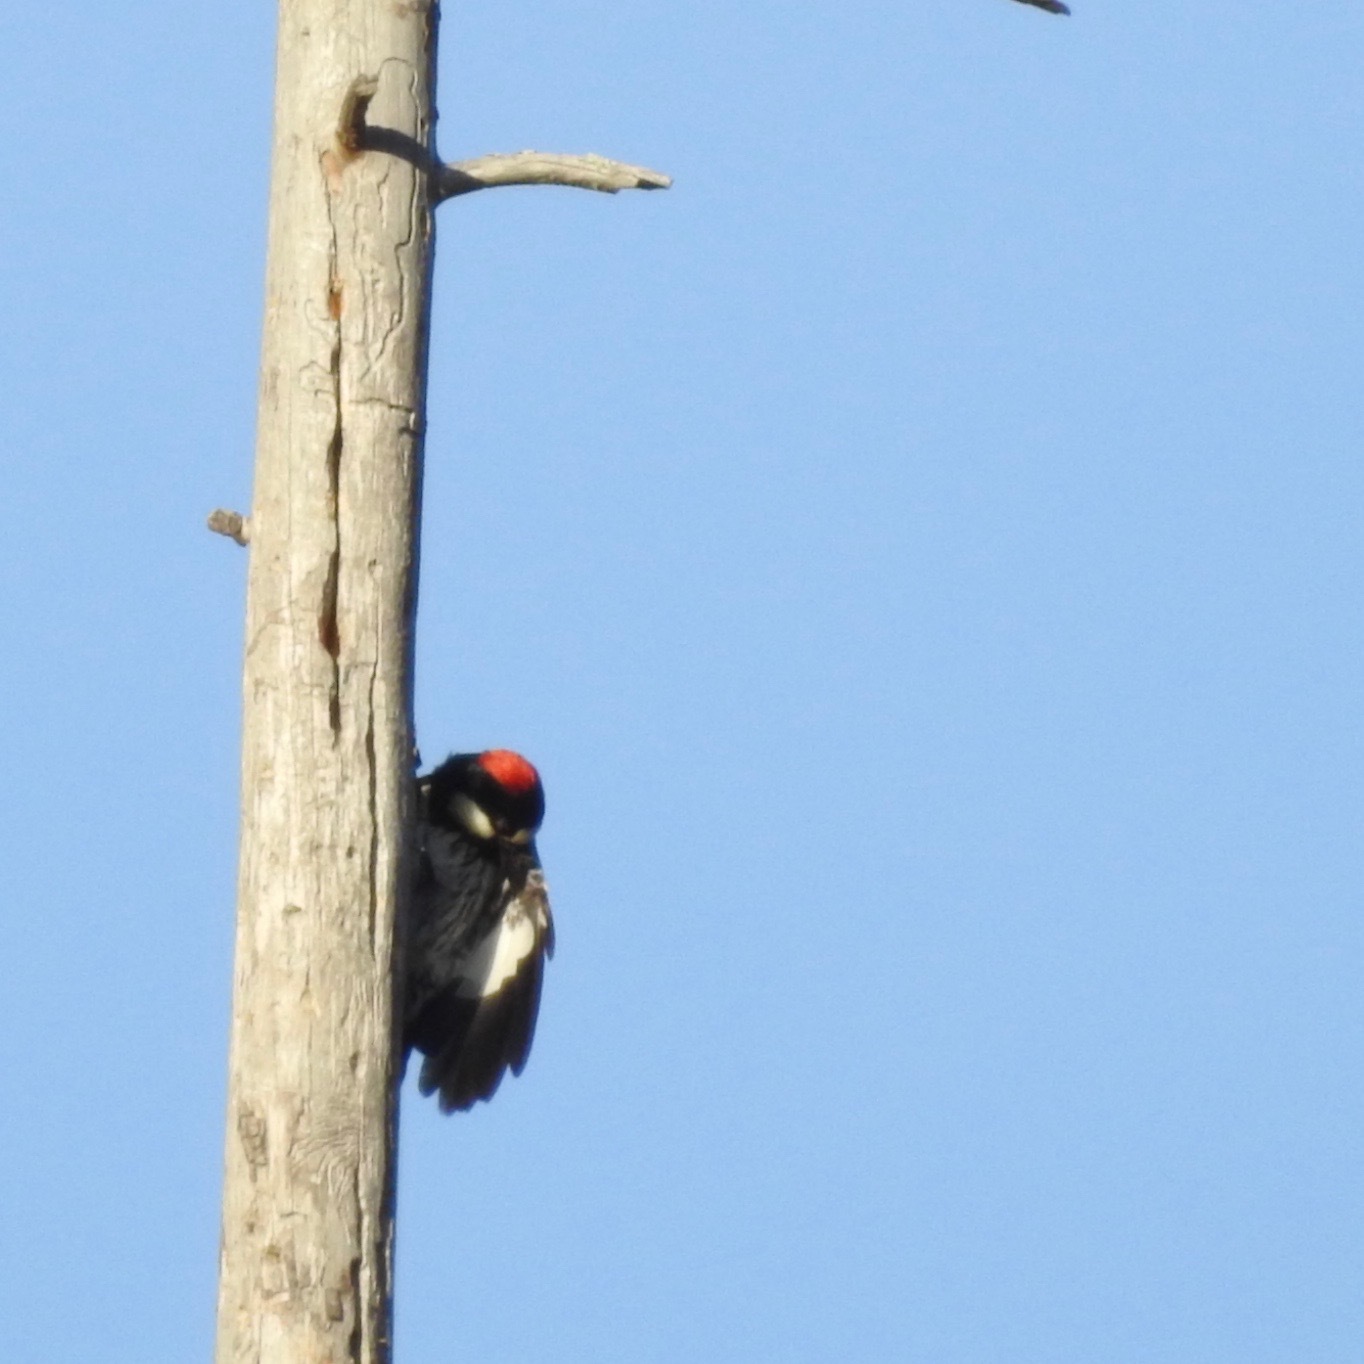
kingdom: Animalia
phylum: Chordata
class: Aves
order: Piciformes
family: Picidae
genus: Melanerpes
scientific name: Melanerpes formicivorus
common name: Acorn woodpecker
